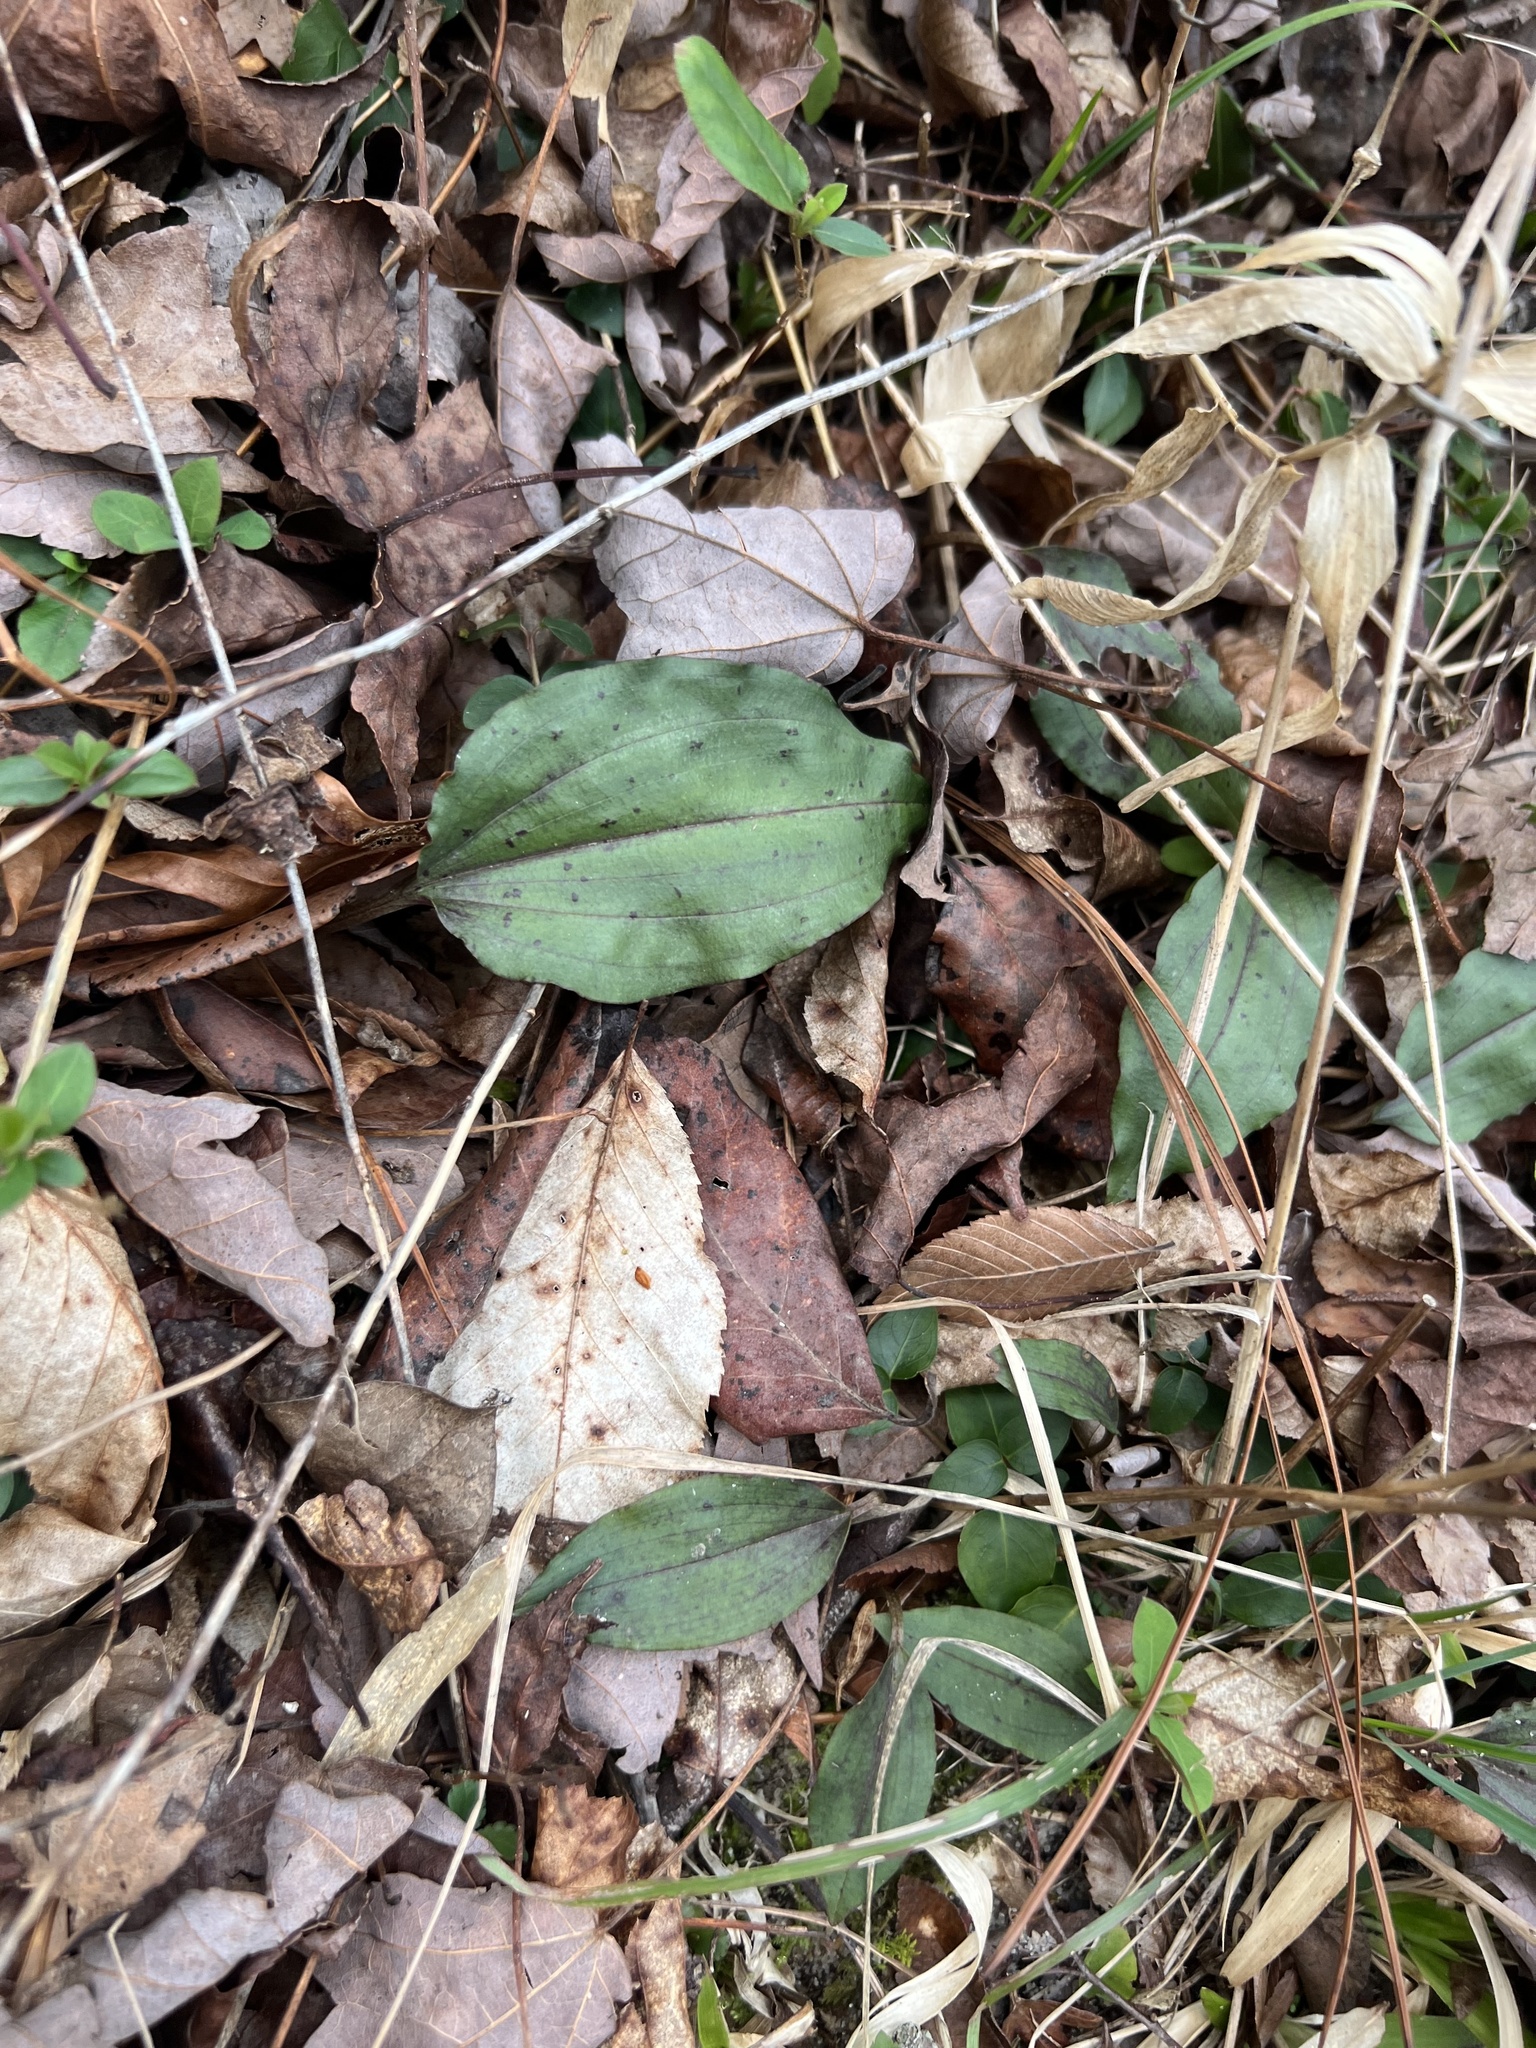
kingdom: Plantae
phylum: Tracheophyta
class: Liliopsida
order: Asparagales
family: Orchidaceae
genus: Tipularia
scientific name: Tipularia discolor
